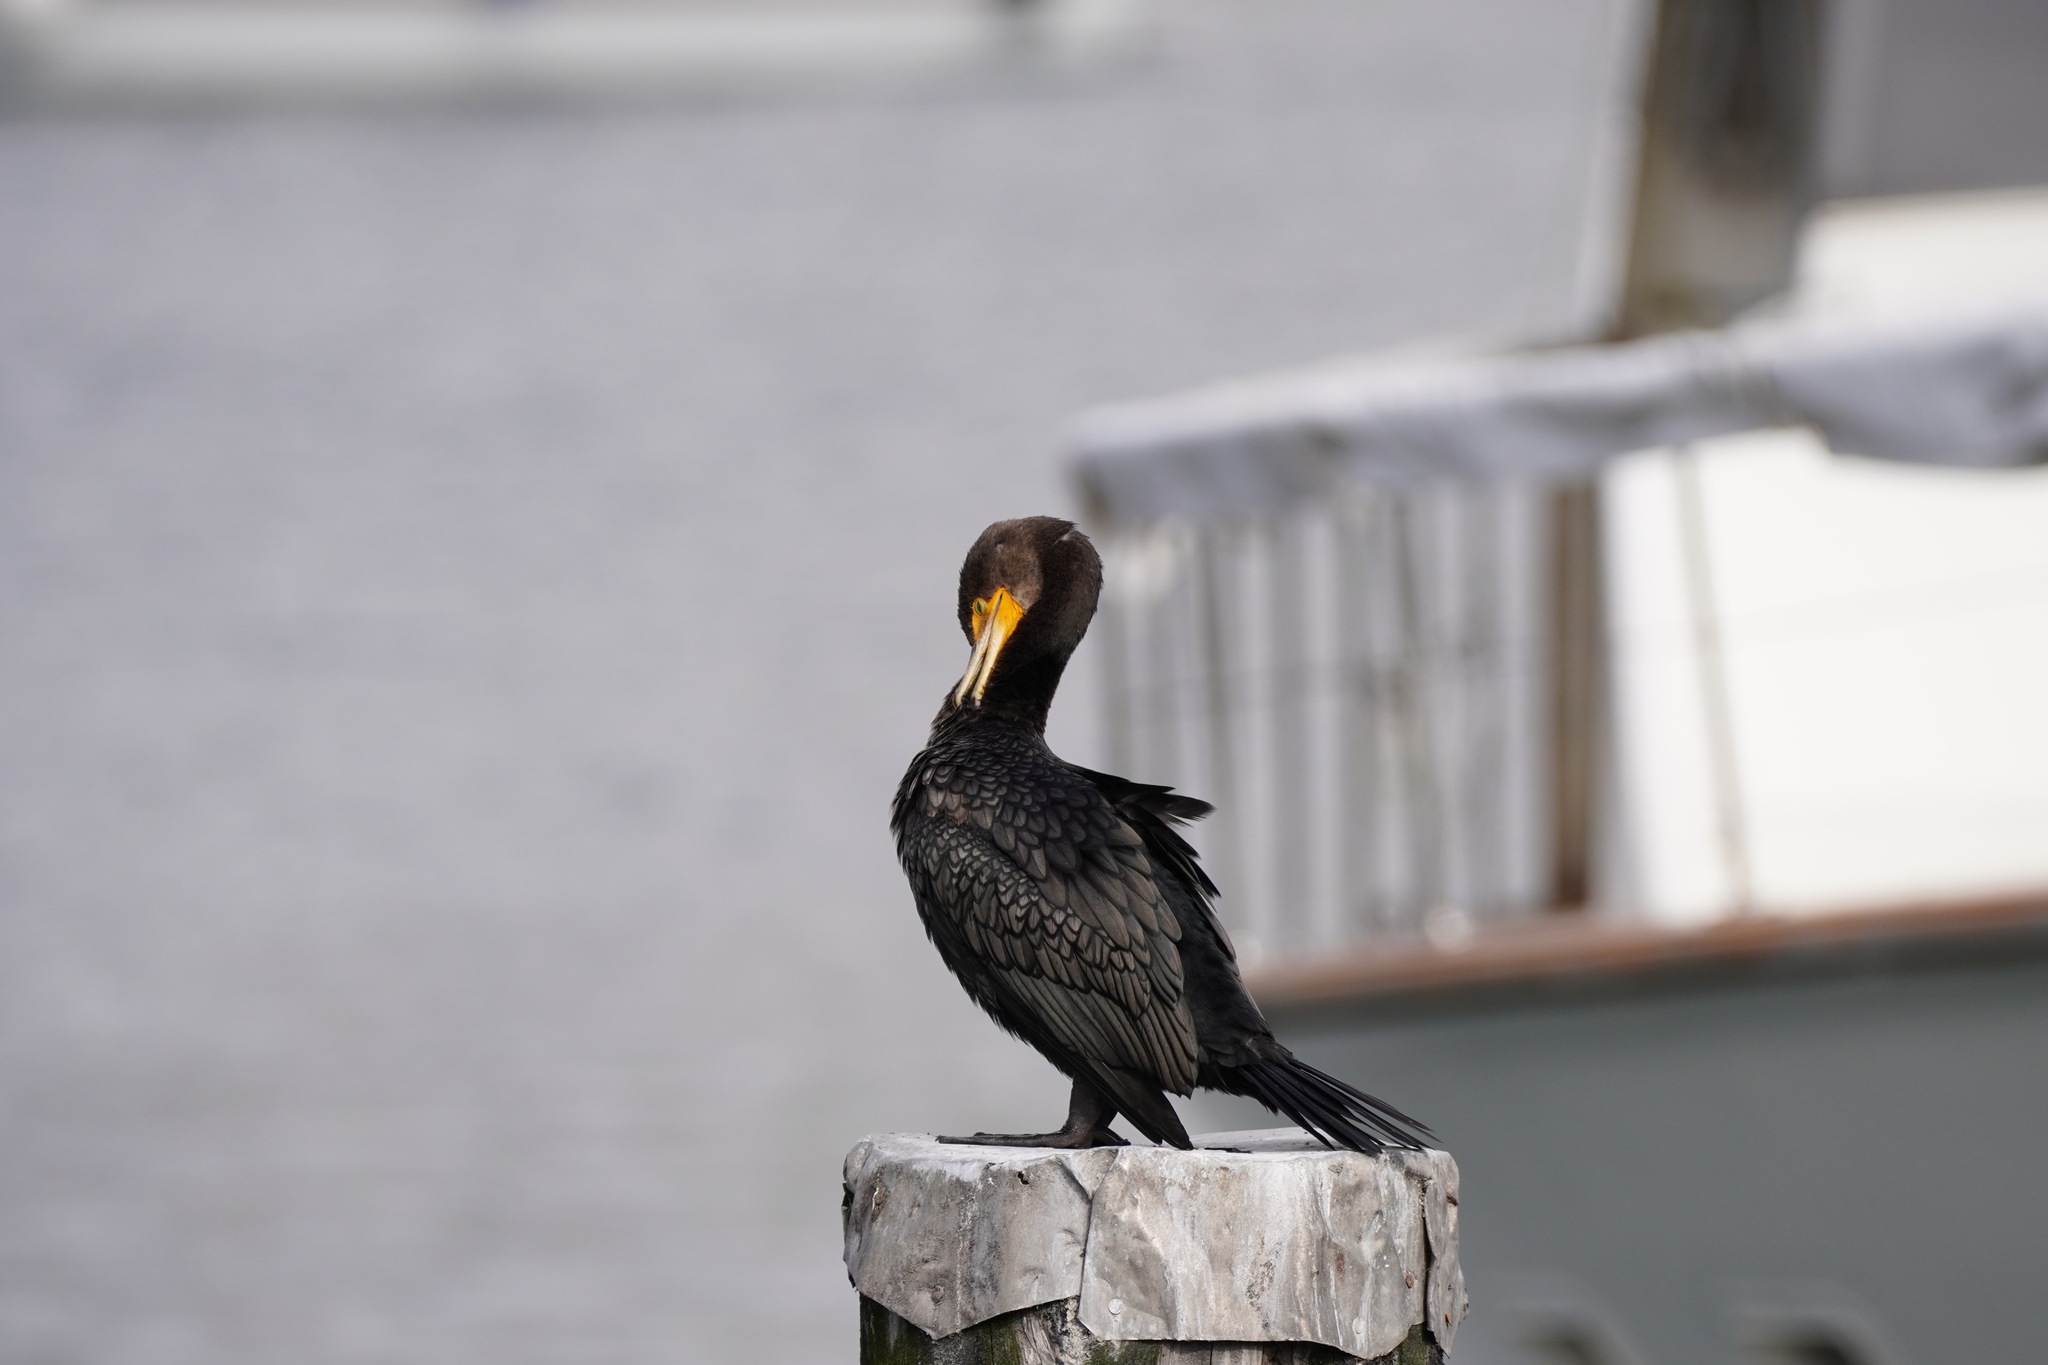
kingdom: Animalia
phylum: Chordata
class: Aves
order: Suliformes
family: Phalacrocoracidae
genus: Phalacrocorax
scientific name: Phalacrocorax auritus
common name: Double-crested cormorant
